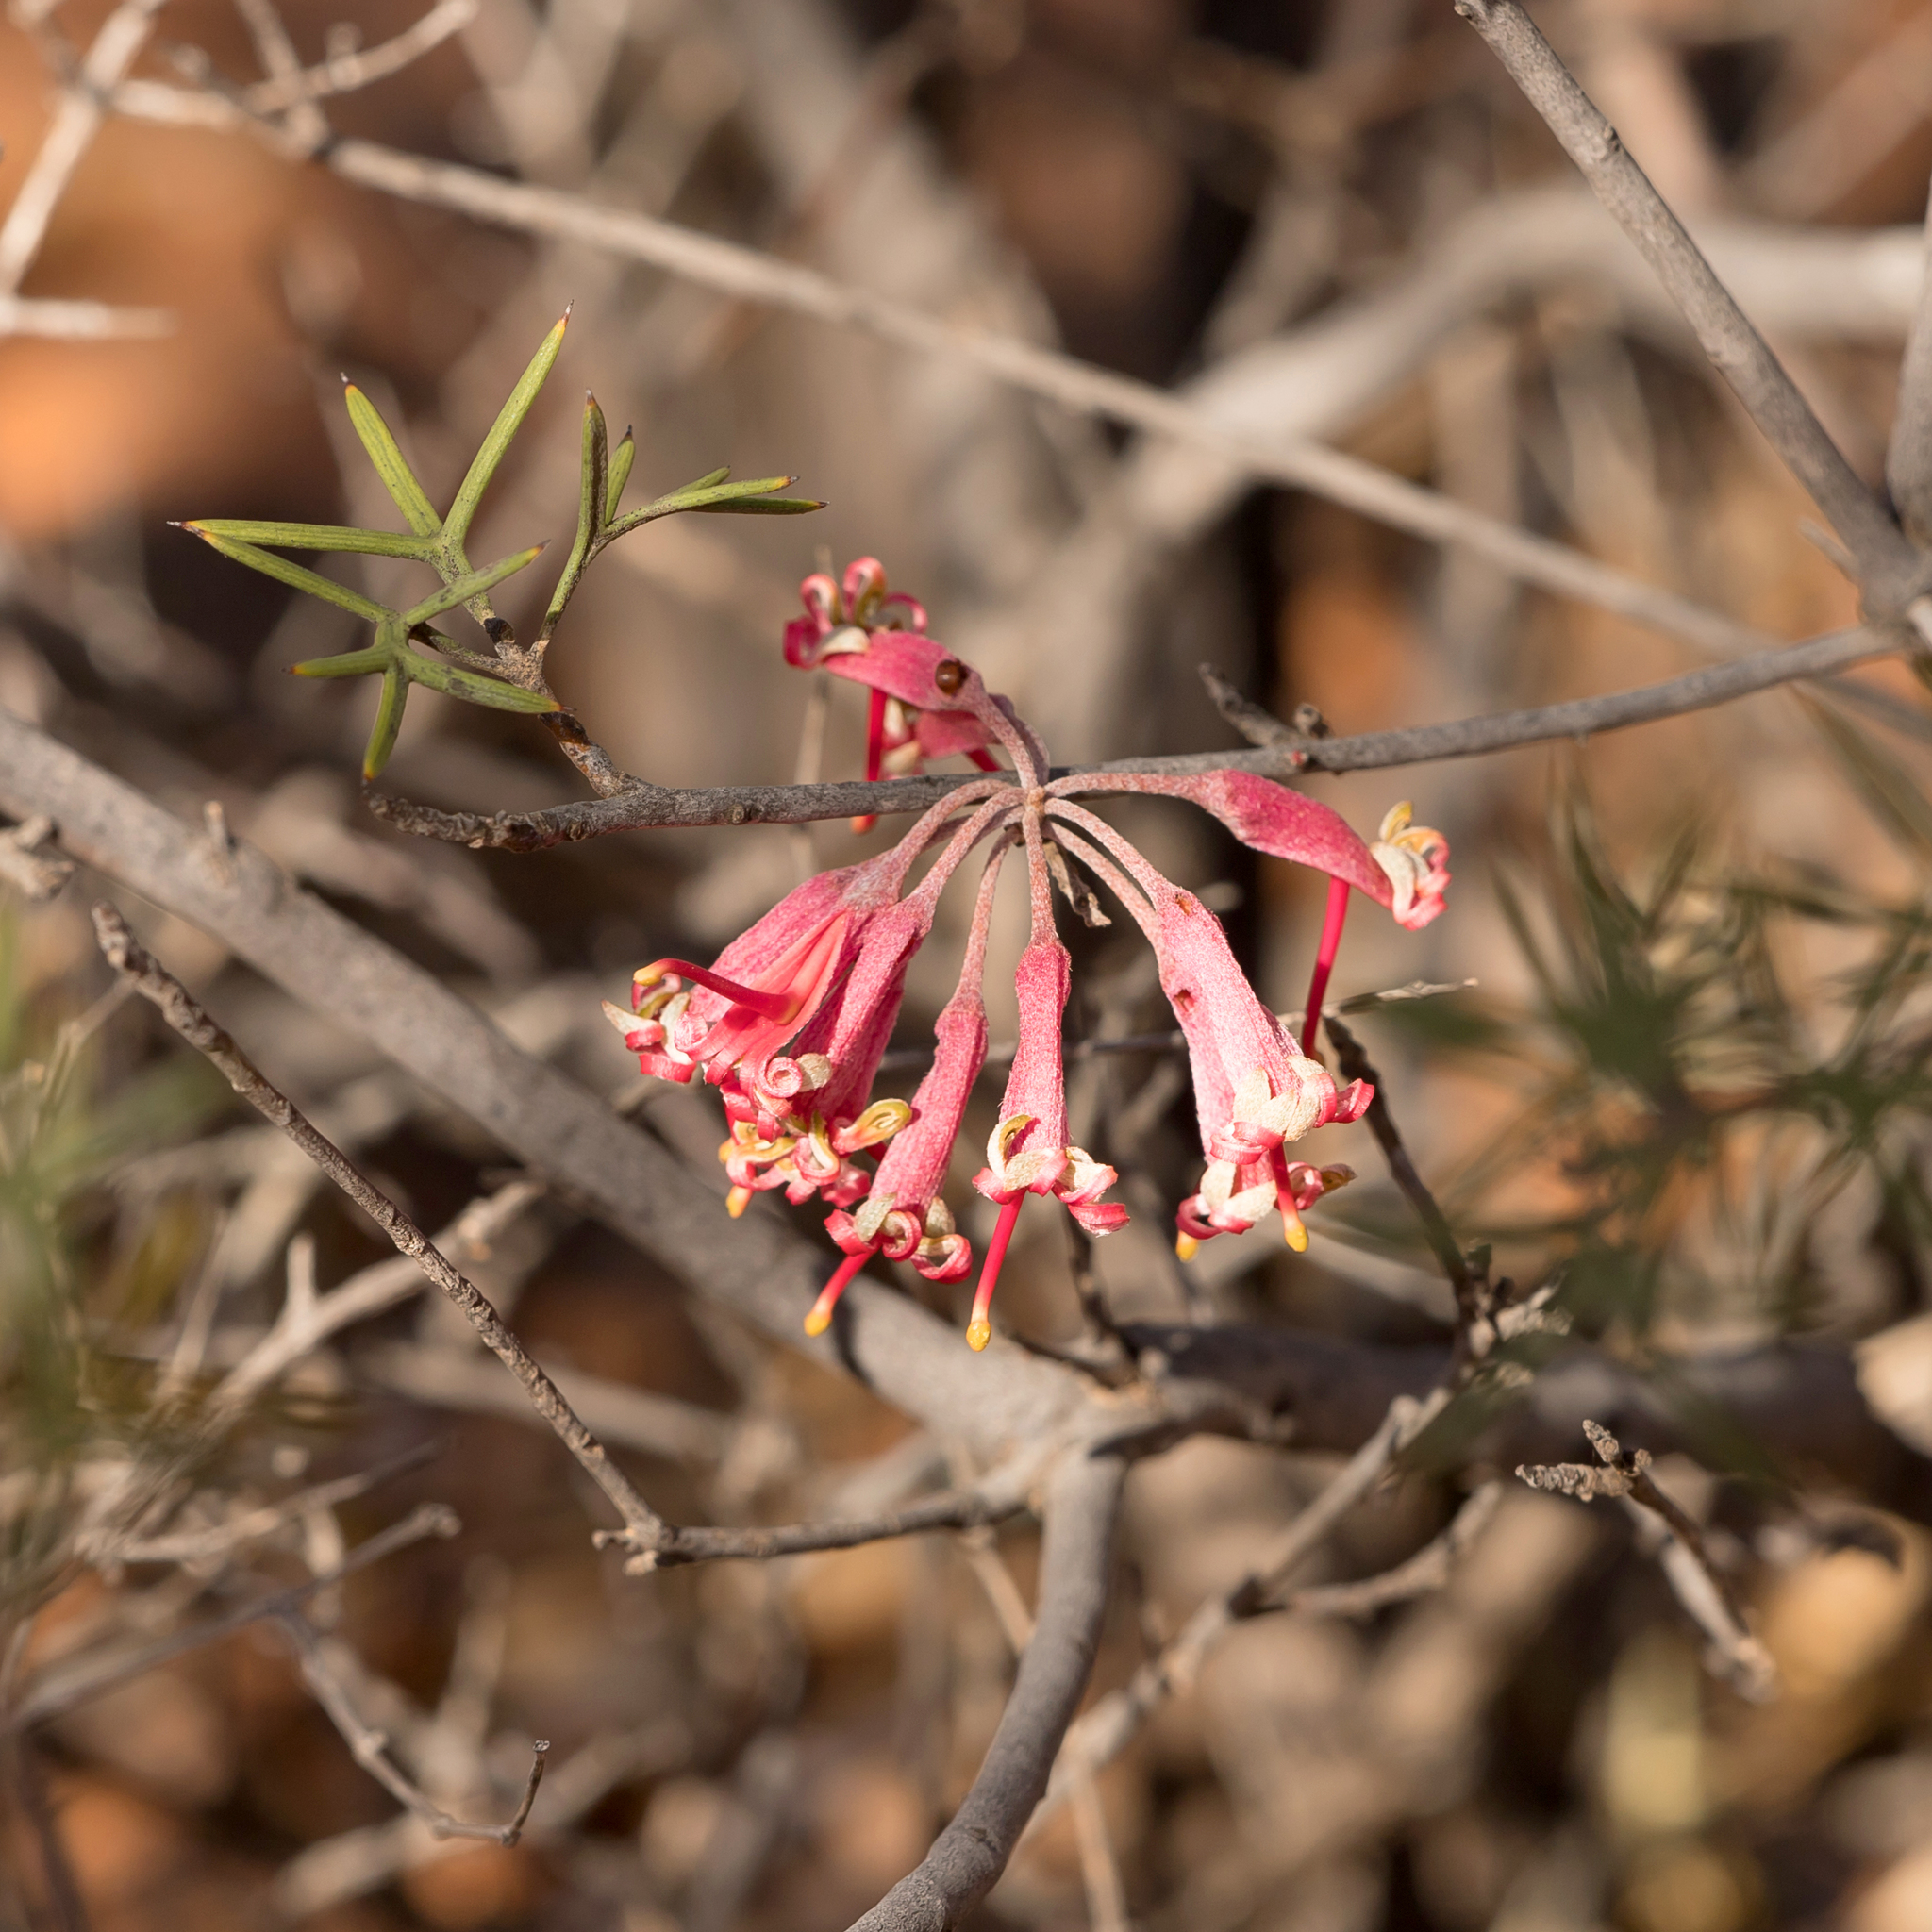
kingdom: Plantae
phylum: Tracheophyta
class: Magnoliopsida
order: Proteales
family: Proteaceae
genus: Grevillea
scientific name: Grevillea huegelii
